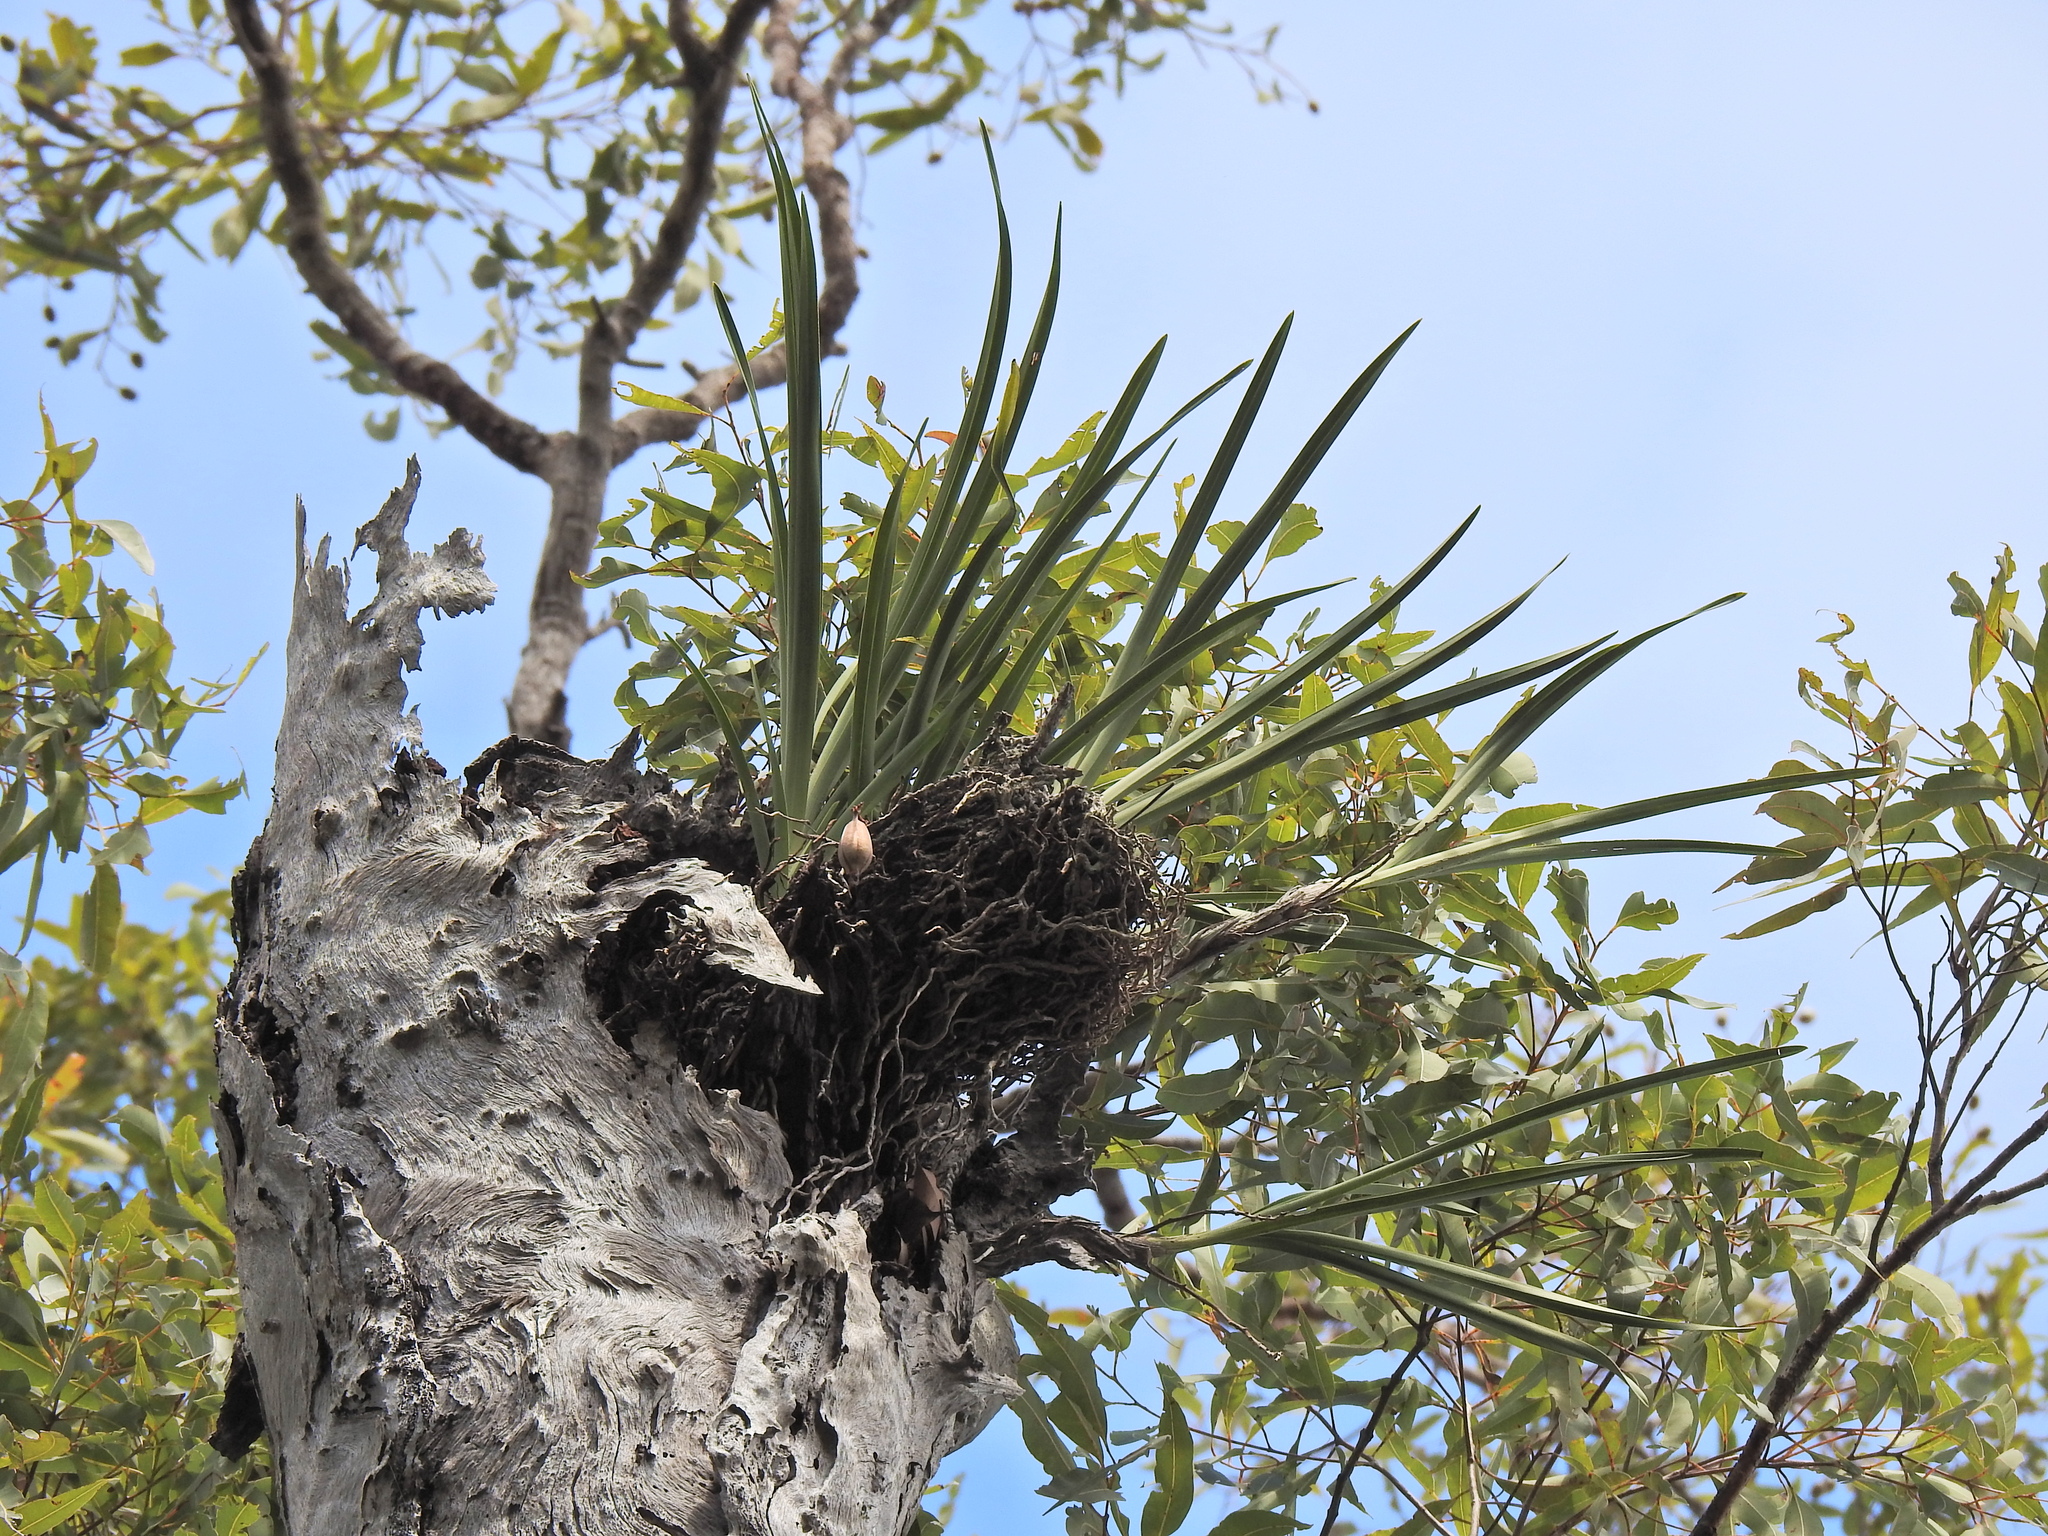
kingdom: Plantae
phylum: Tracheophyta
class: Liliopsida
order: Asparagales
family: Orchidaceae
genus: Cymbidium
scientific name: Cymbidium suave
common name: Snake orchid
